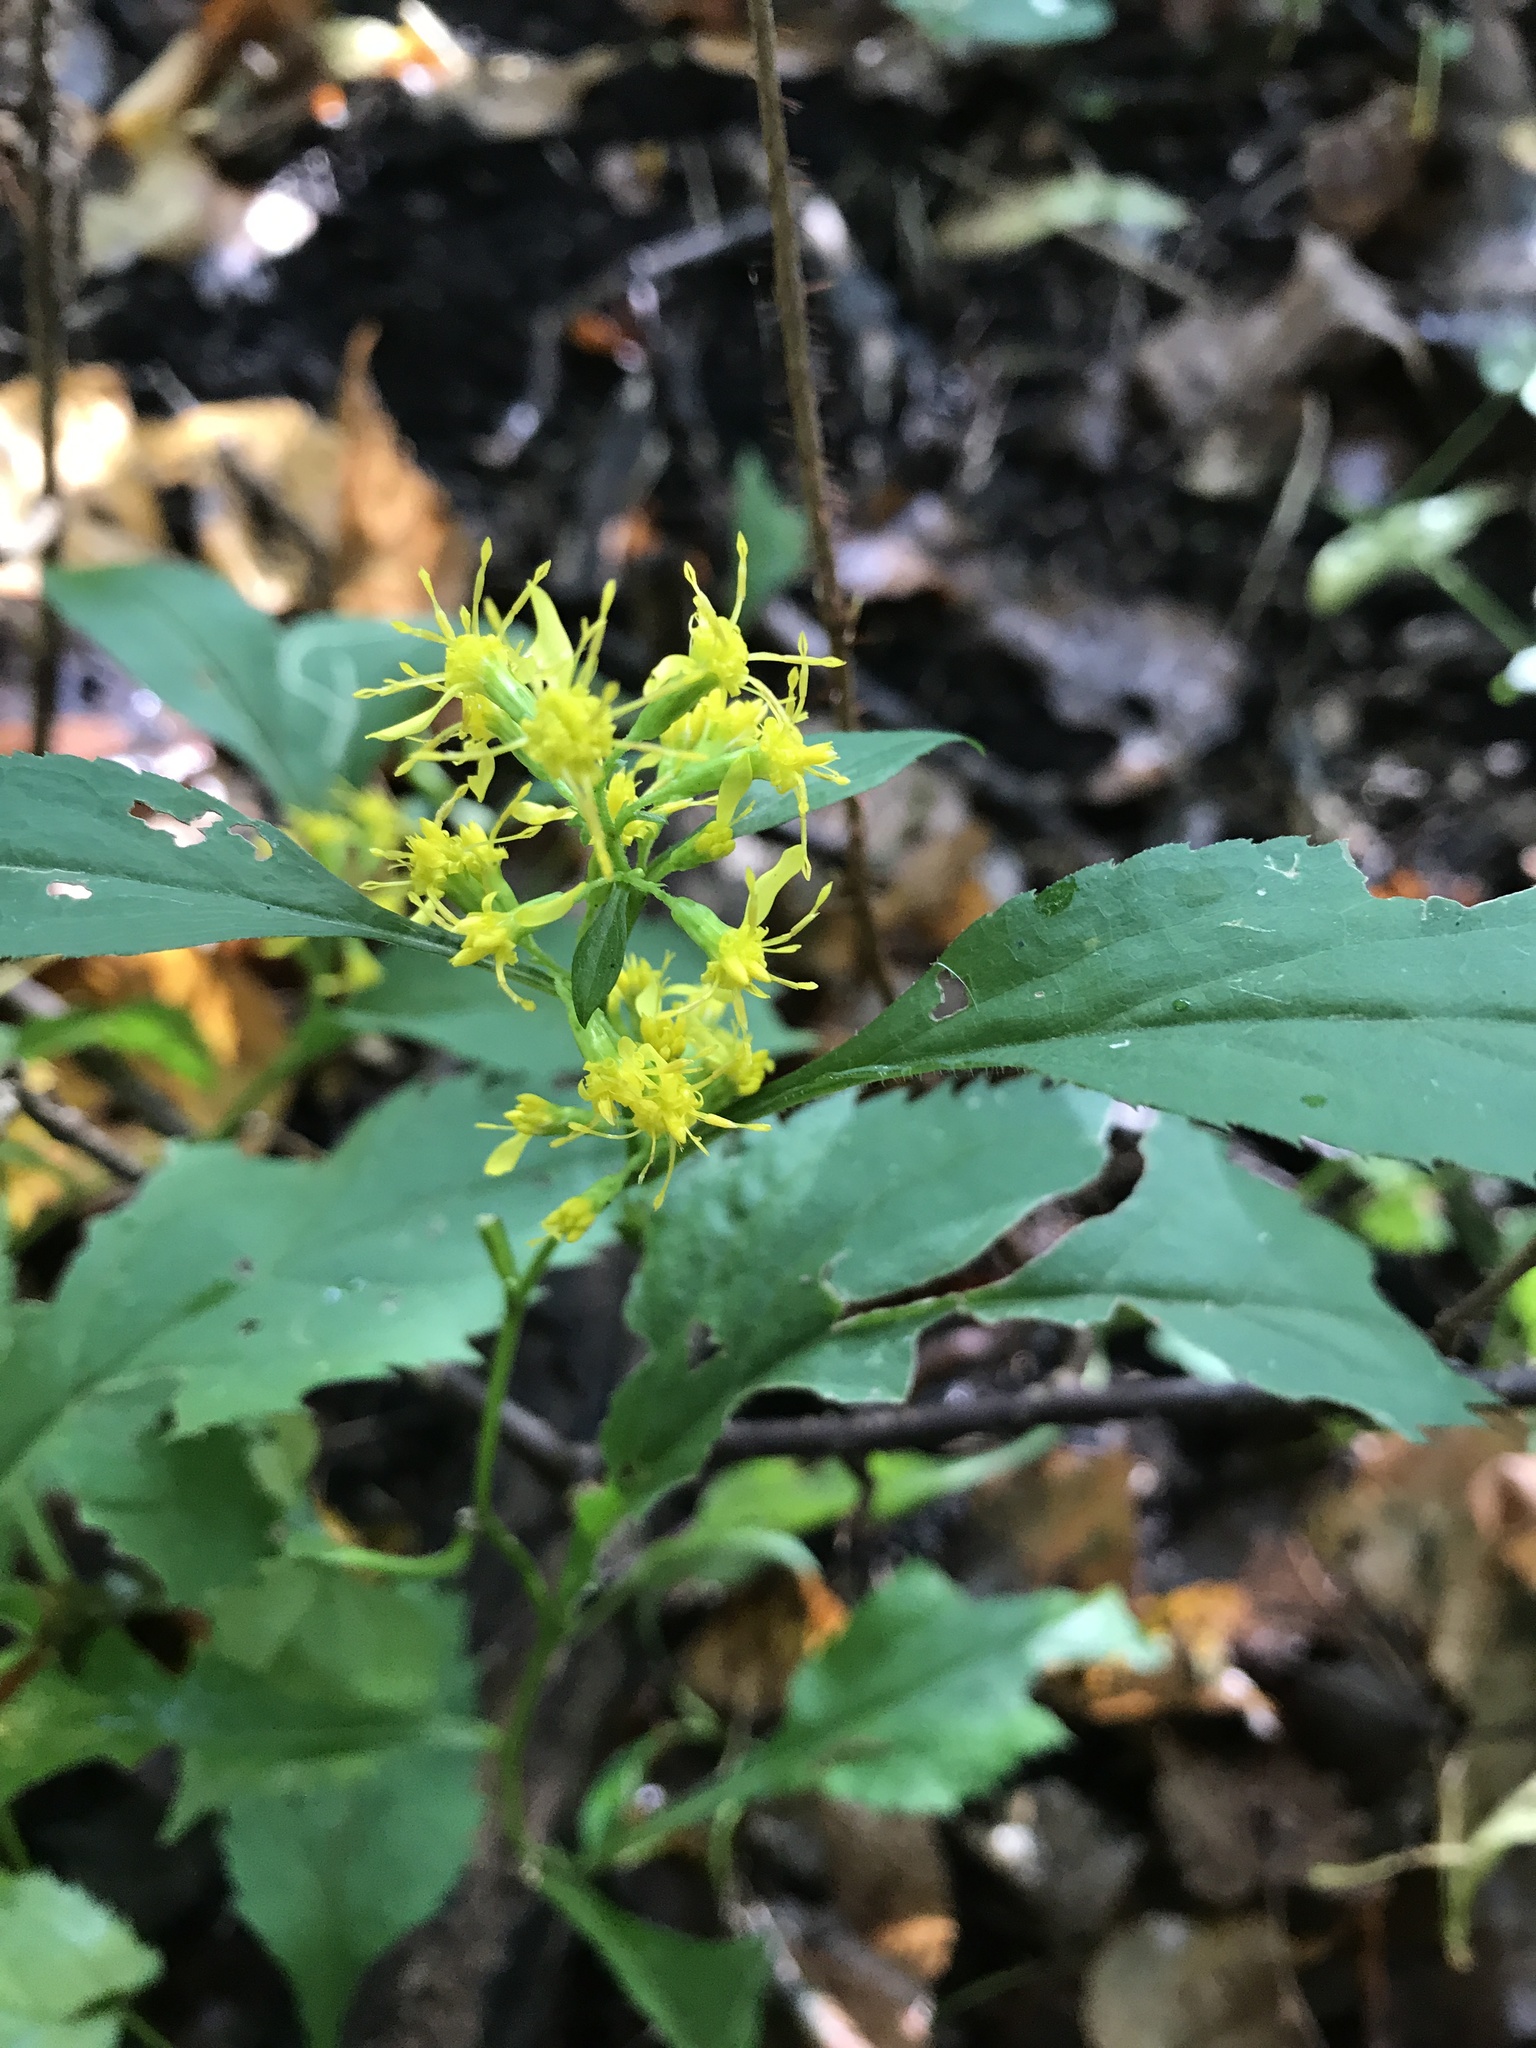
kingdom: Plantae
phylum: Tracheophyta
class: Magnoliopsida
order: Asterales
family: Asteraceae
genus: Solidago
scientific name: Solidago flexicaulis
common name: Zig-zag goldenrod
